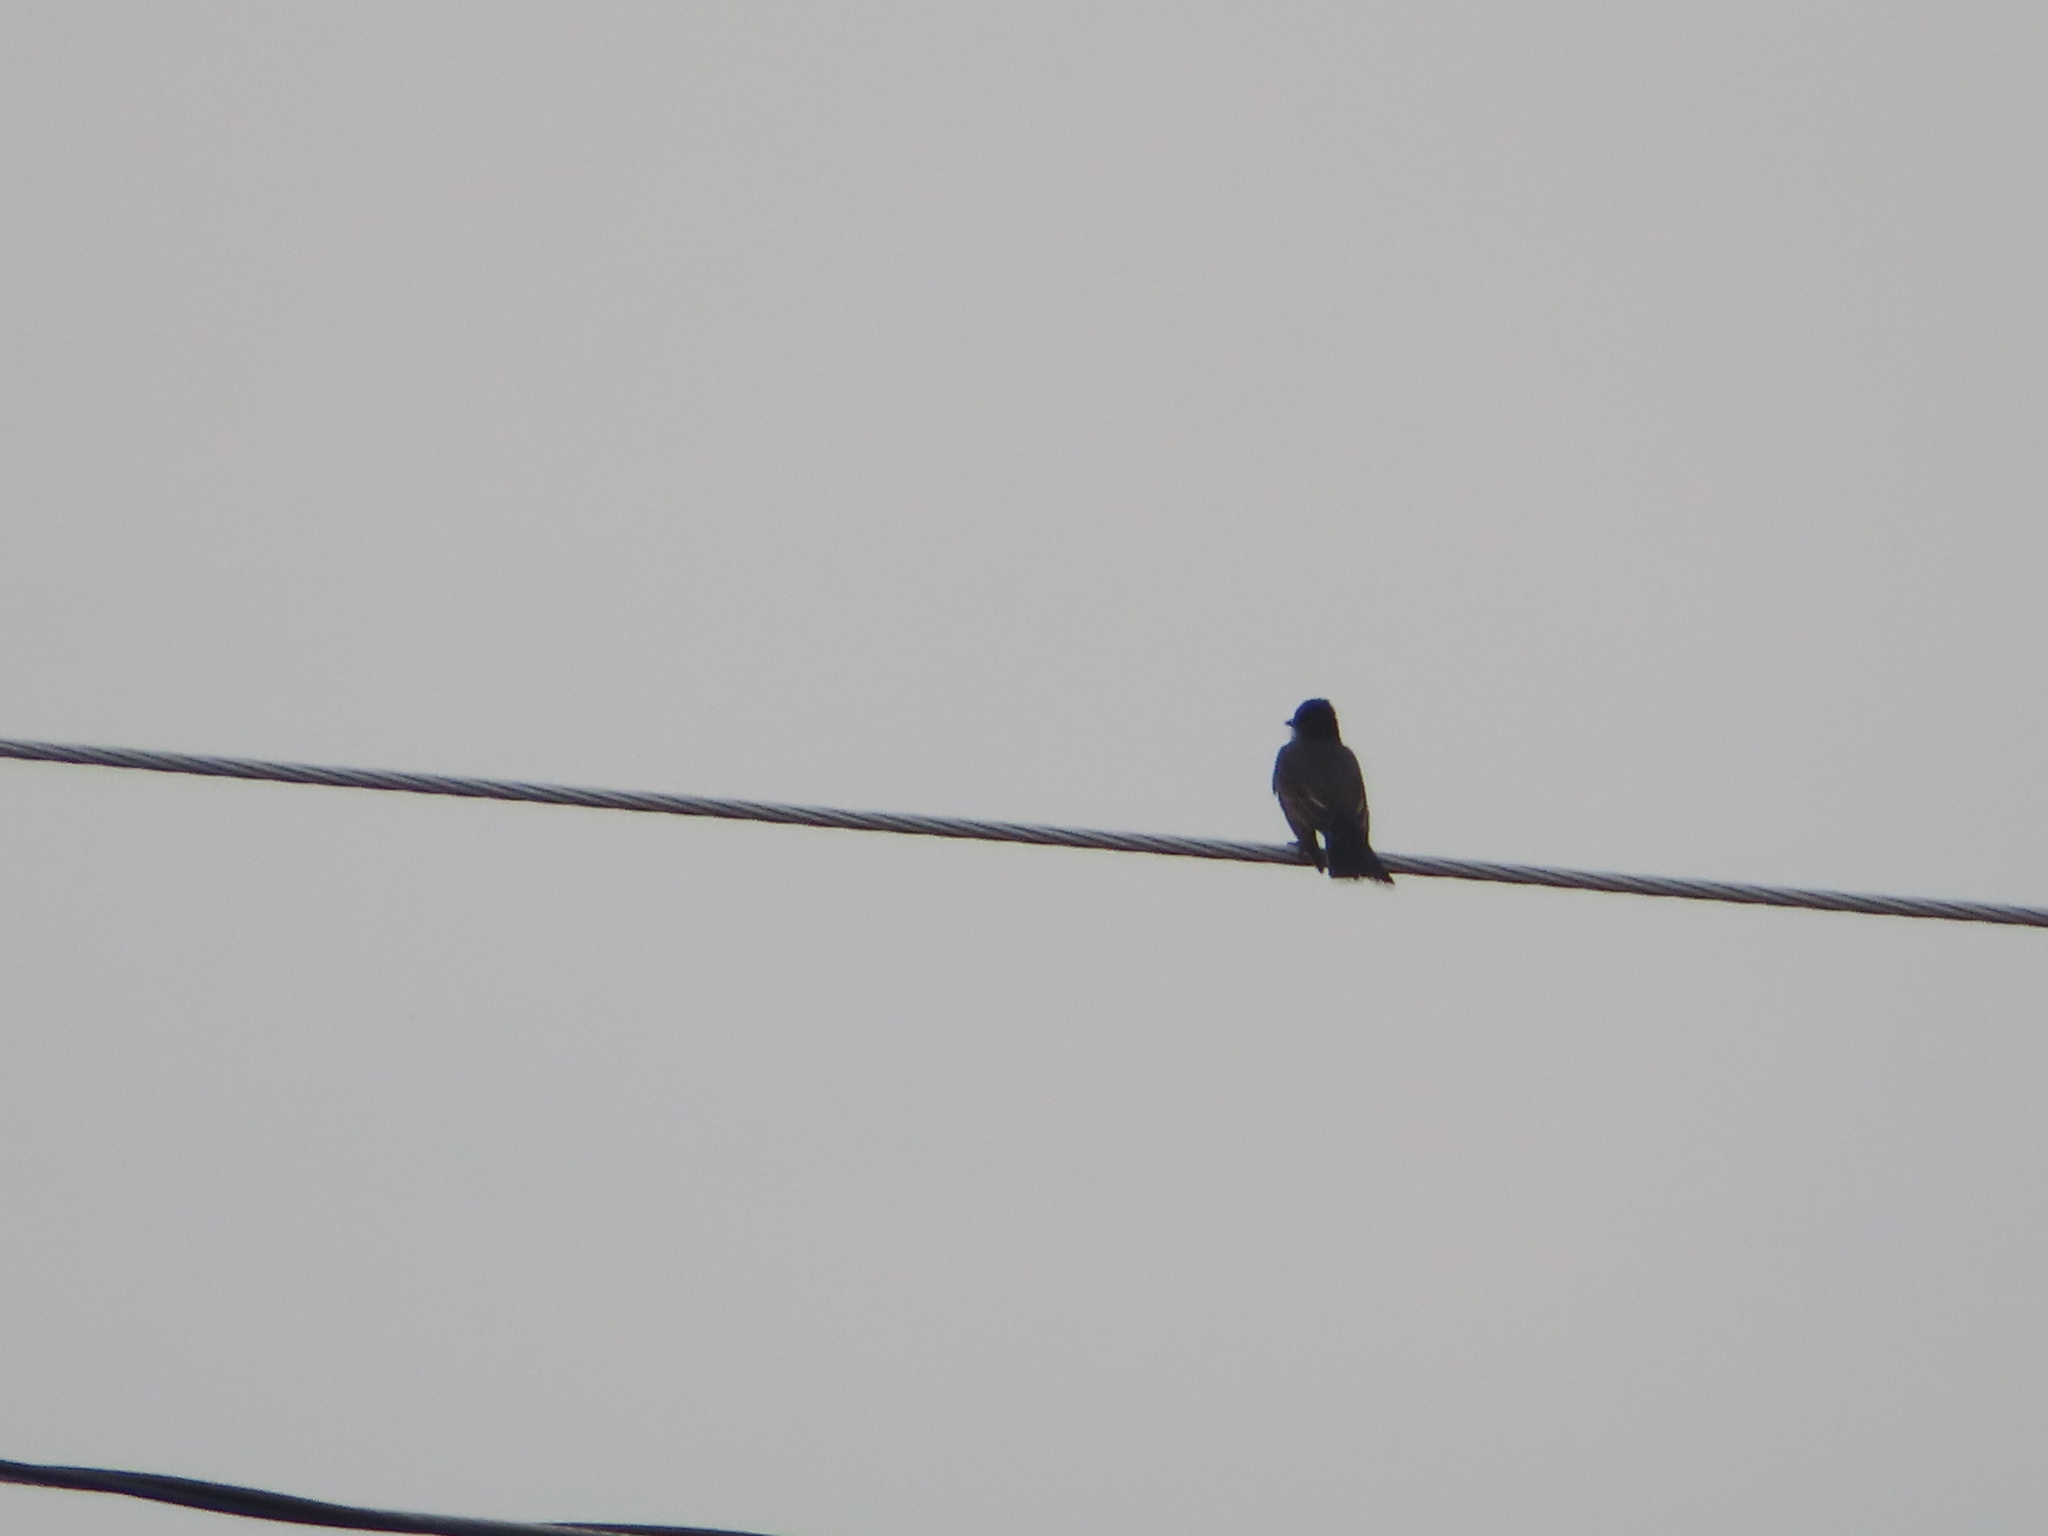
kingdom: Animalia
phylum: Chordata
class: Aves
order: Passeriformes
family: Tyrannidae
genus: Tyrannus
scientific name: Tyrannus tyrannus
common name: Eastern kingbird
